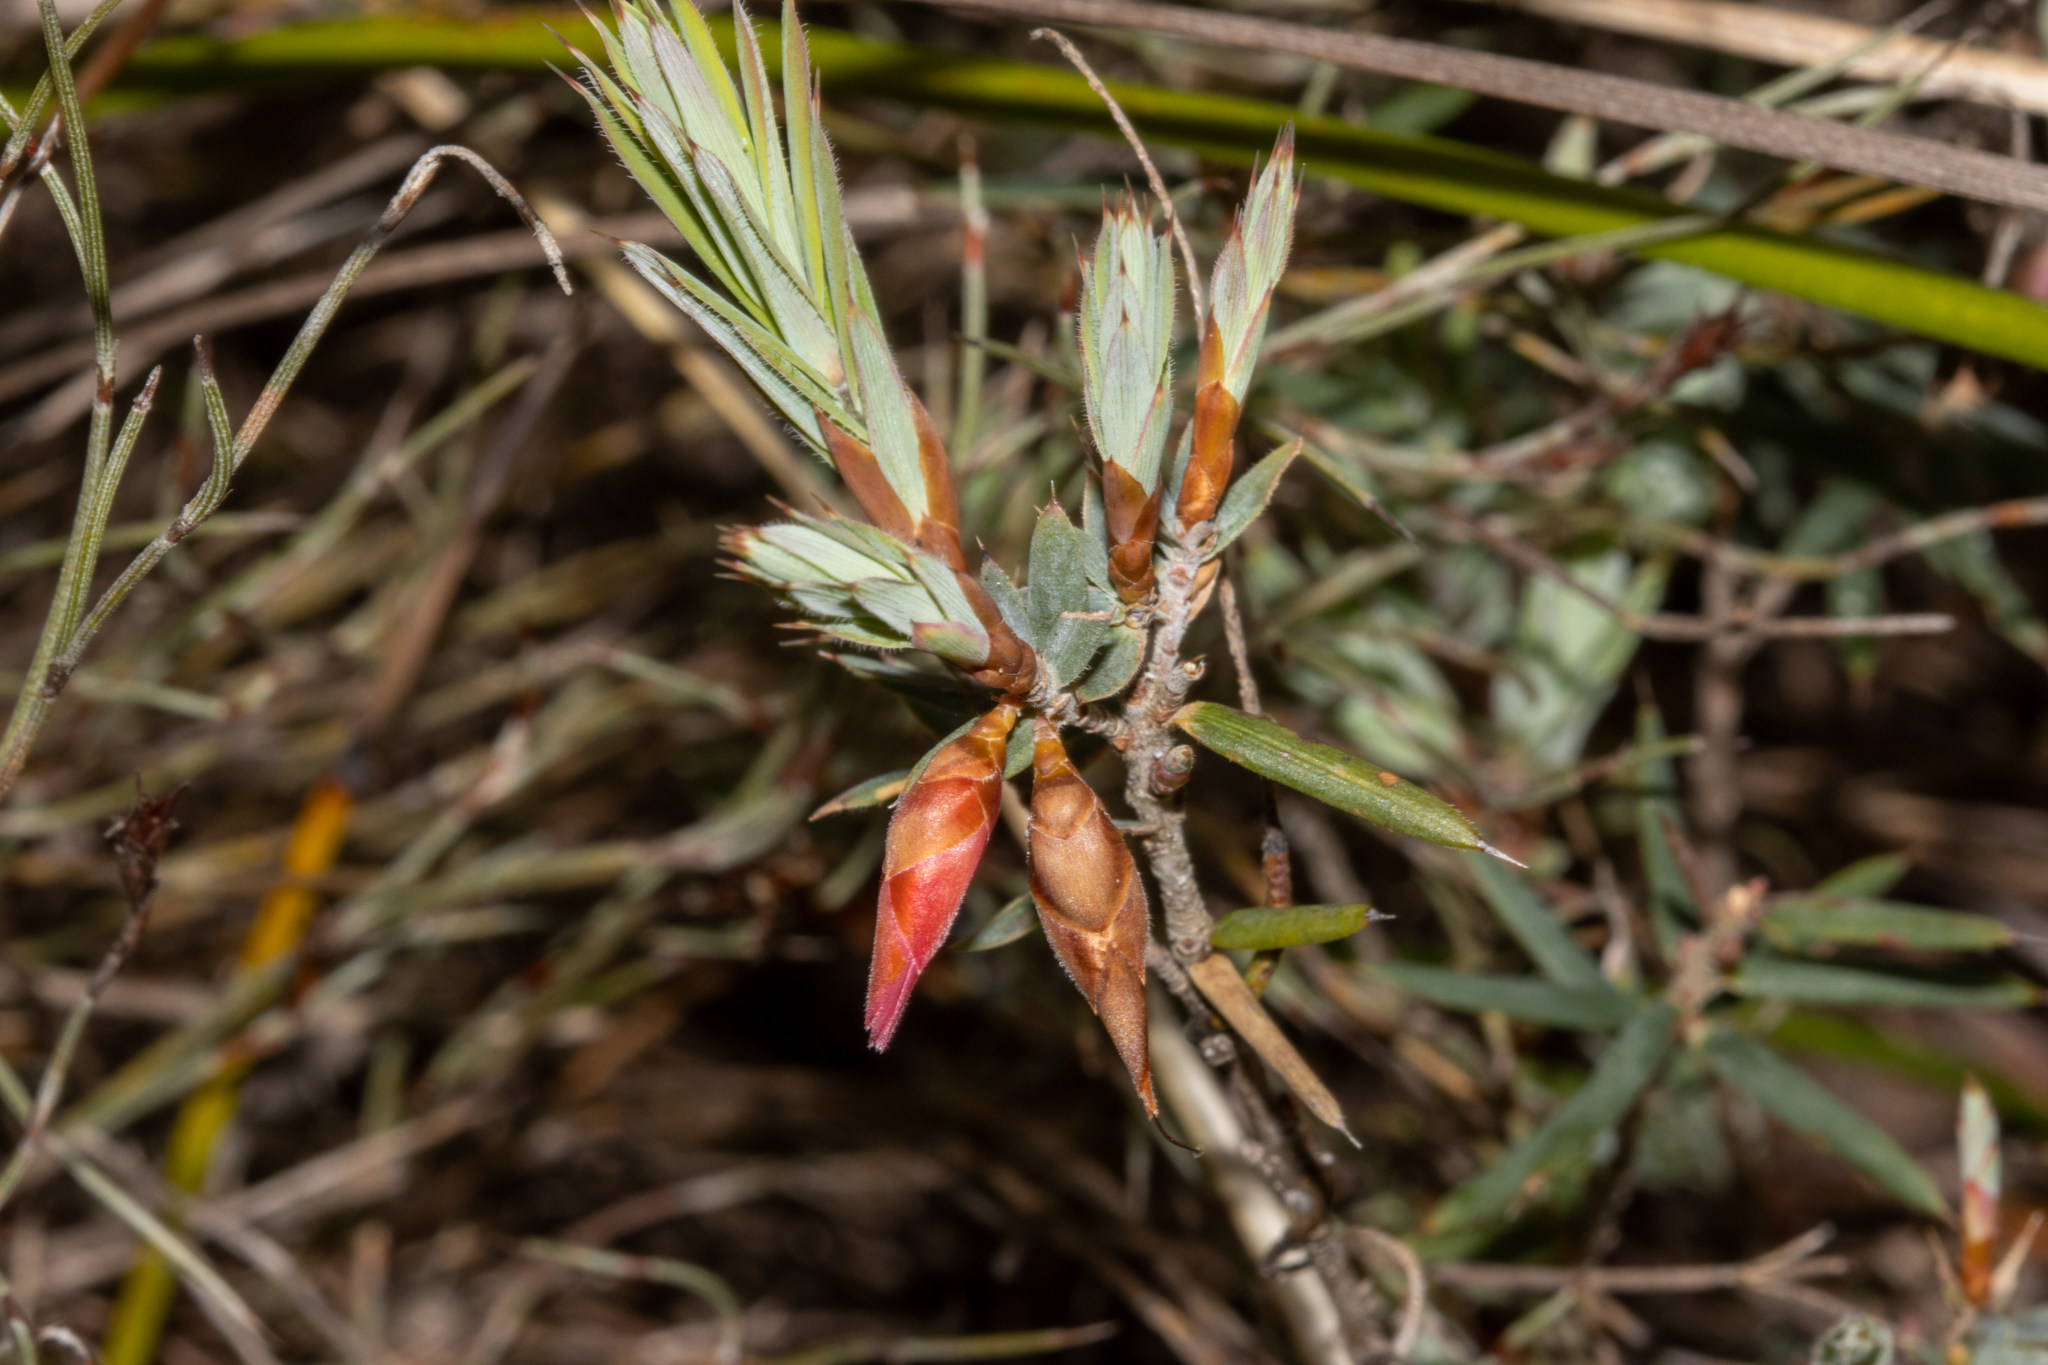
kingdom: Plantae
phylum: Tracheophyta
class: Magnoliopsida
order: Ericales
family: Ericaceae
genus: Stenanthera
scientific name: Stenanthera conostephioides
